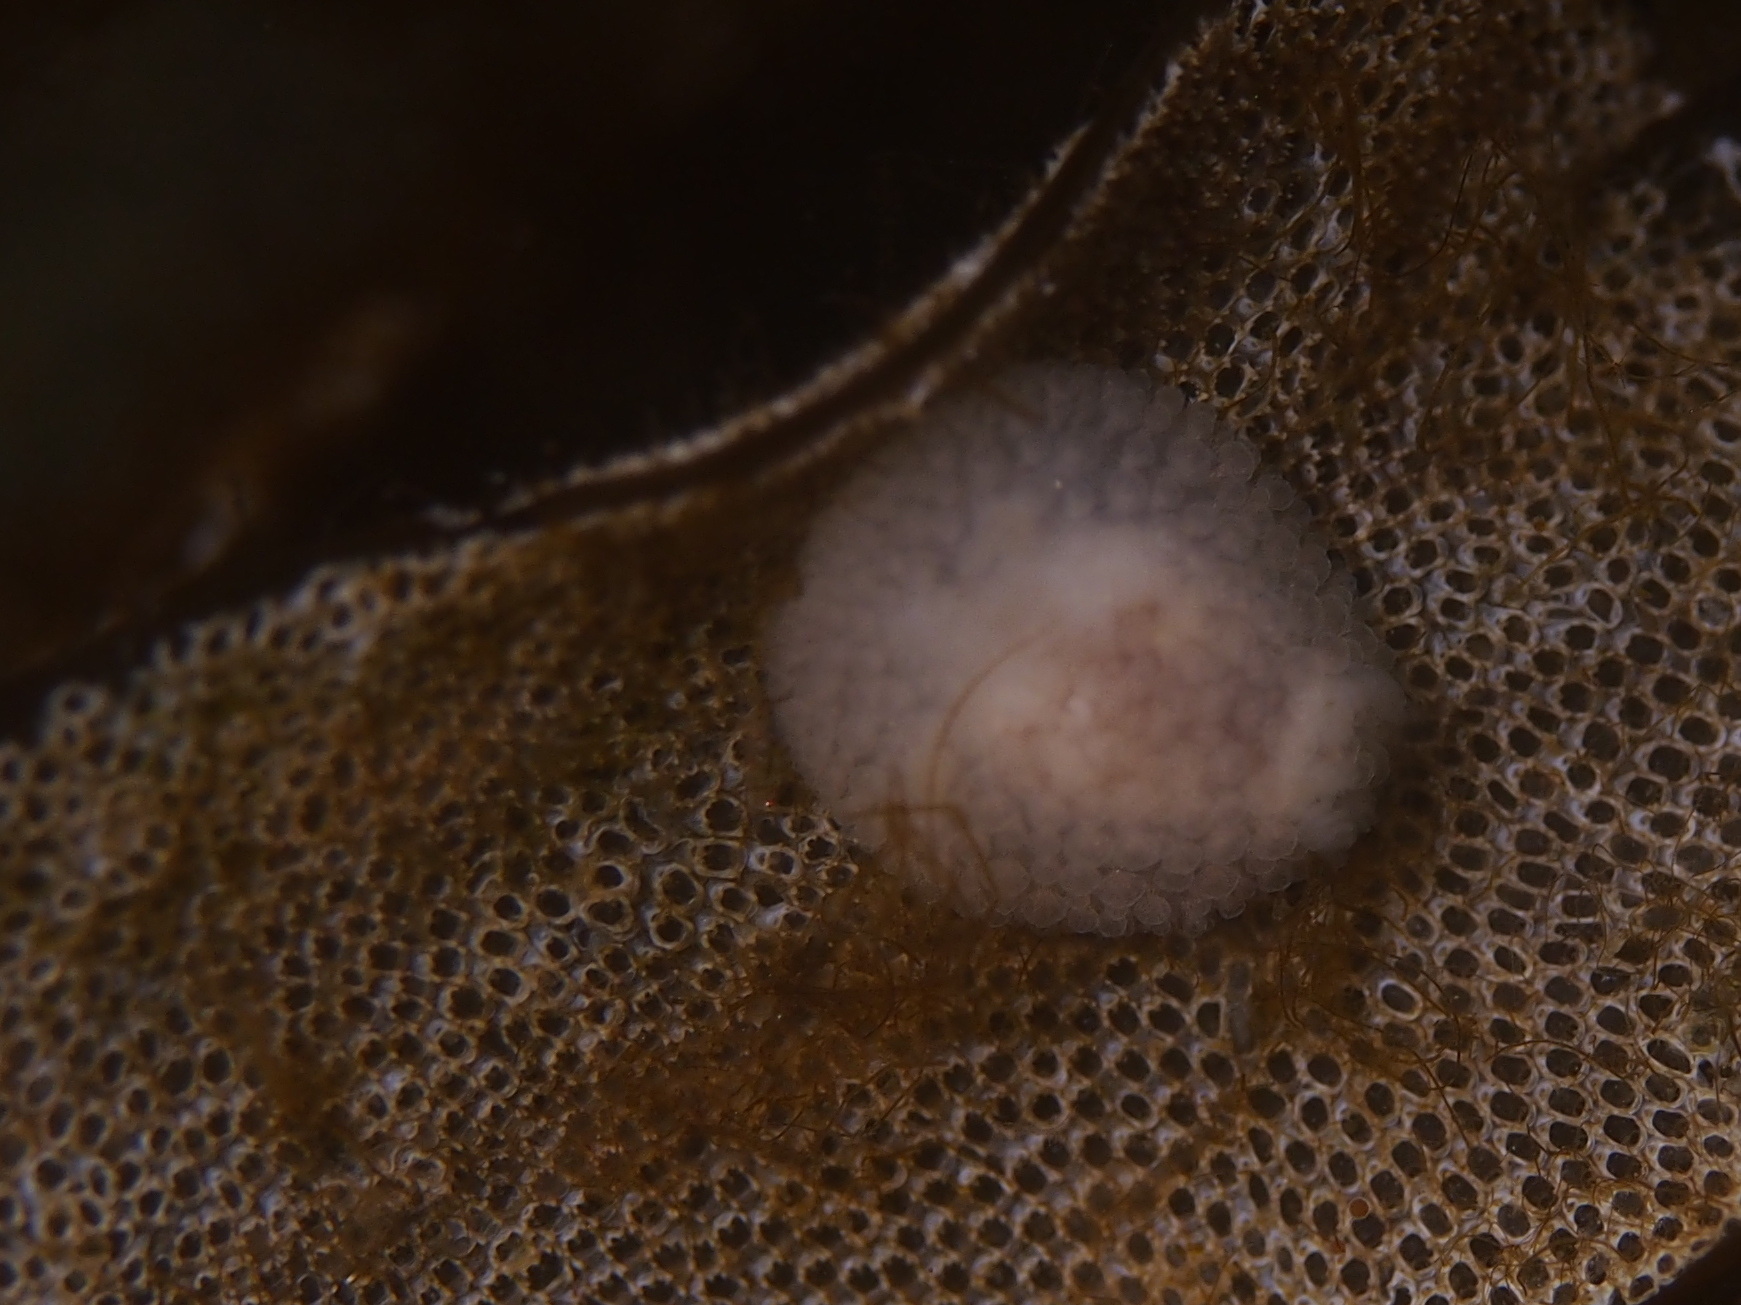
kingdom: Animalia
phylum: Mollusca
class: Gastropoda
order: Nudibranchia
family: Onchidorididae
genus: Onchidoris
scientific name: Onchidoris muricata
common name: Rough doris
